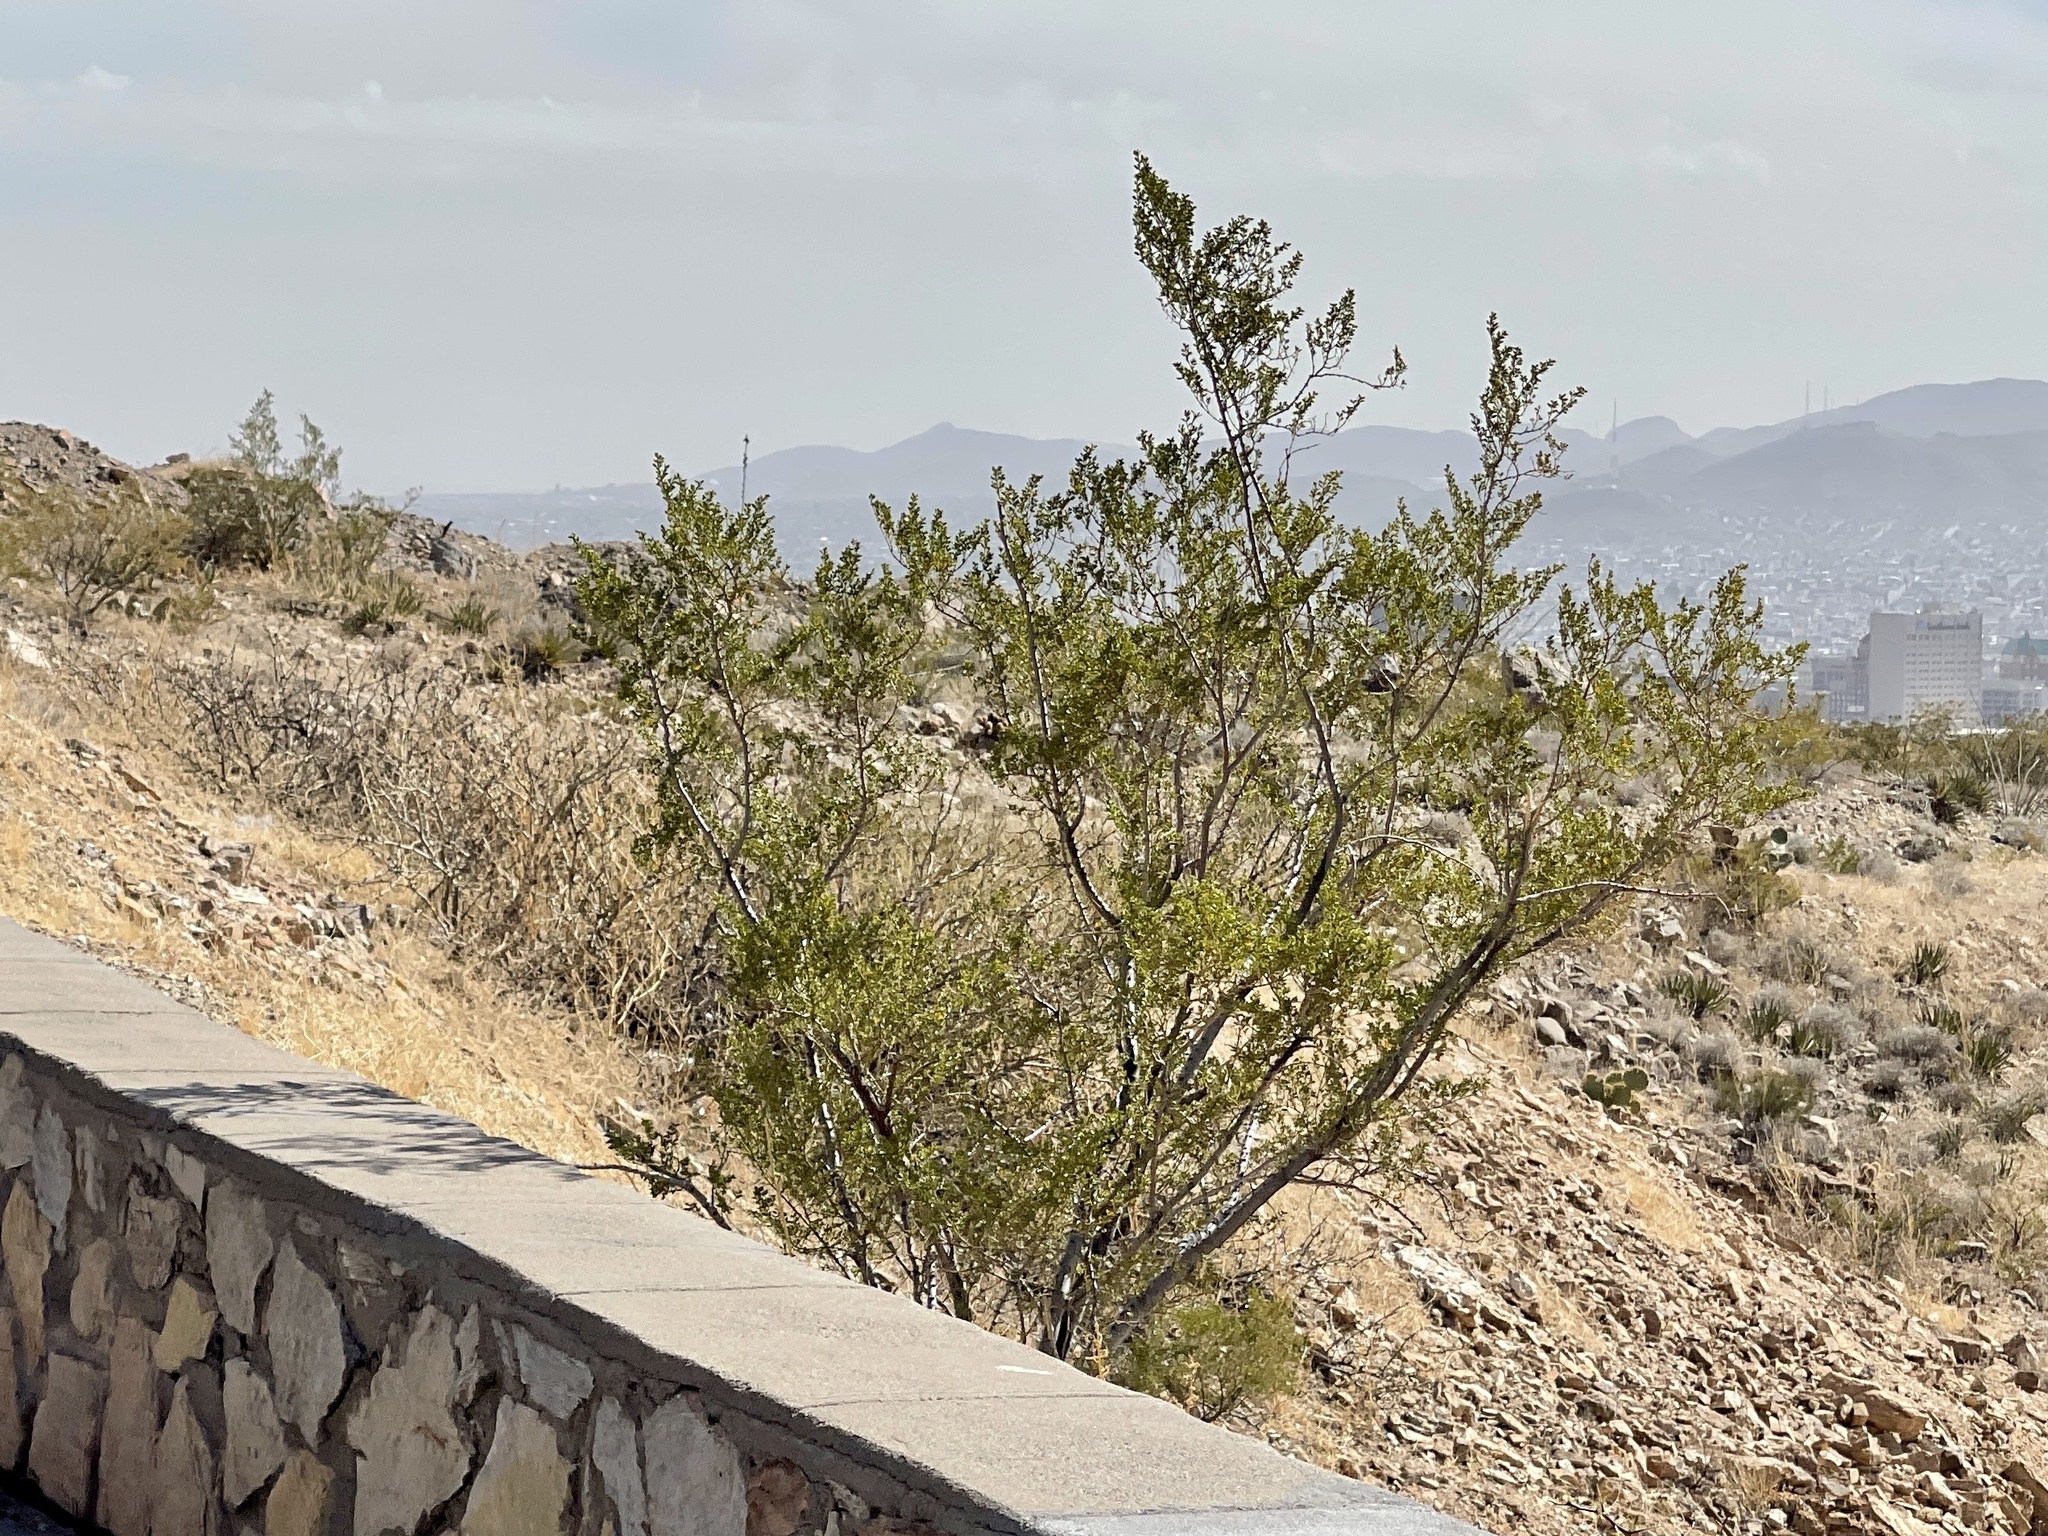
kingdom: Plantae
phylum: Tracheophyta
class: Magnoliopsida
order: Zygophyllales
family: Zygophyllaceae
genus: Larrea
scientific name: Larrea tridentata
